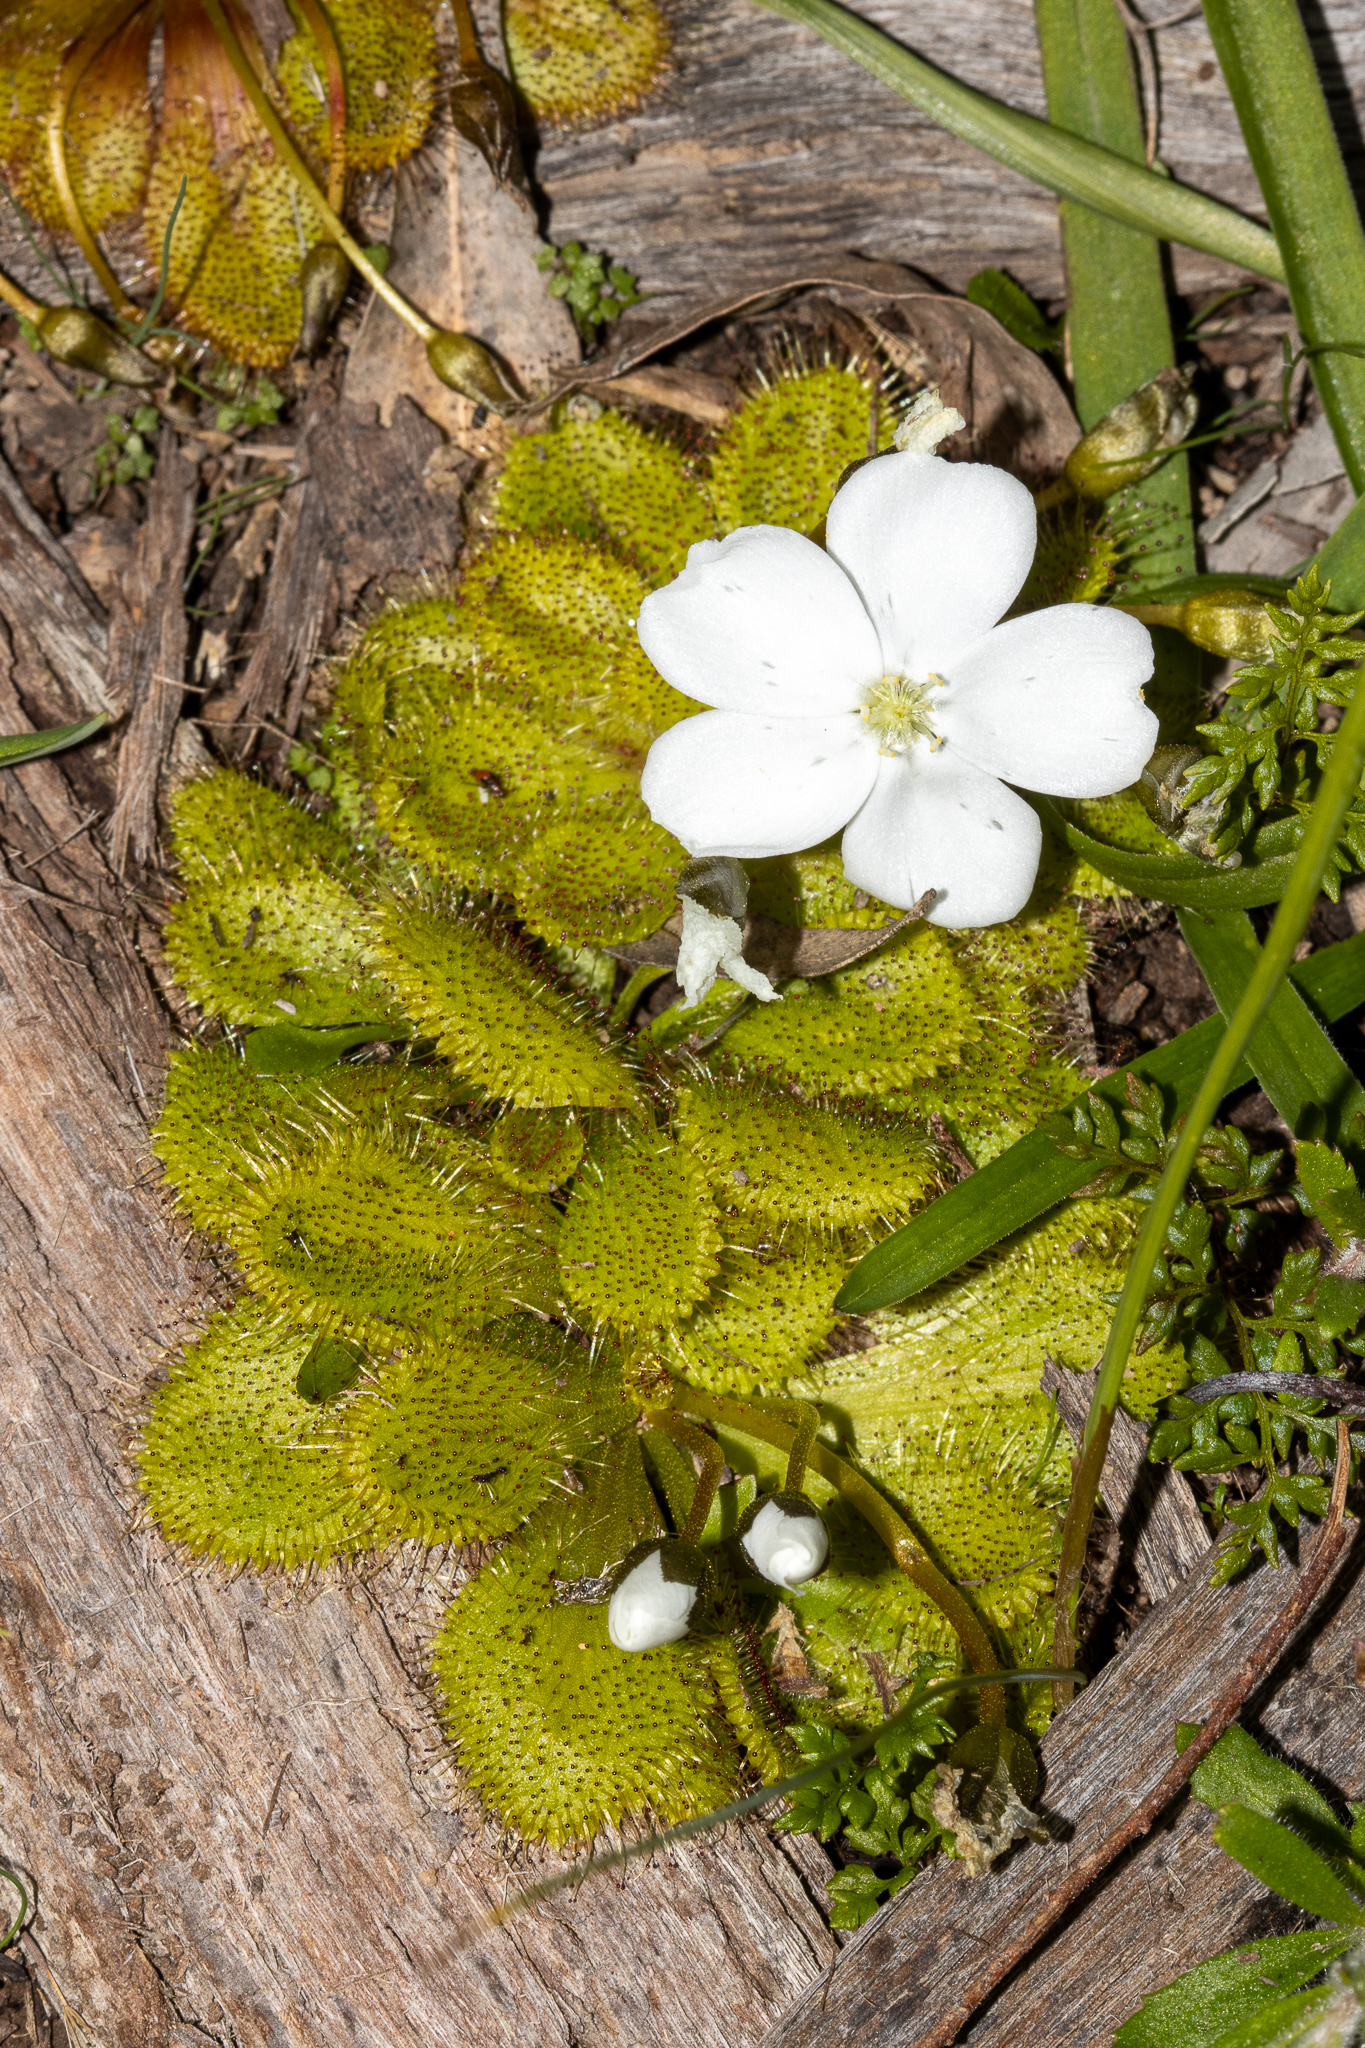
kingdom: Plantae
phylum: Tracheophyta
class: Magnoliopsida
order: Caryophyllales
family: Droseraceae
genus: Drosera
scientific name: Drosera whittakeri
